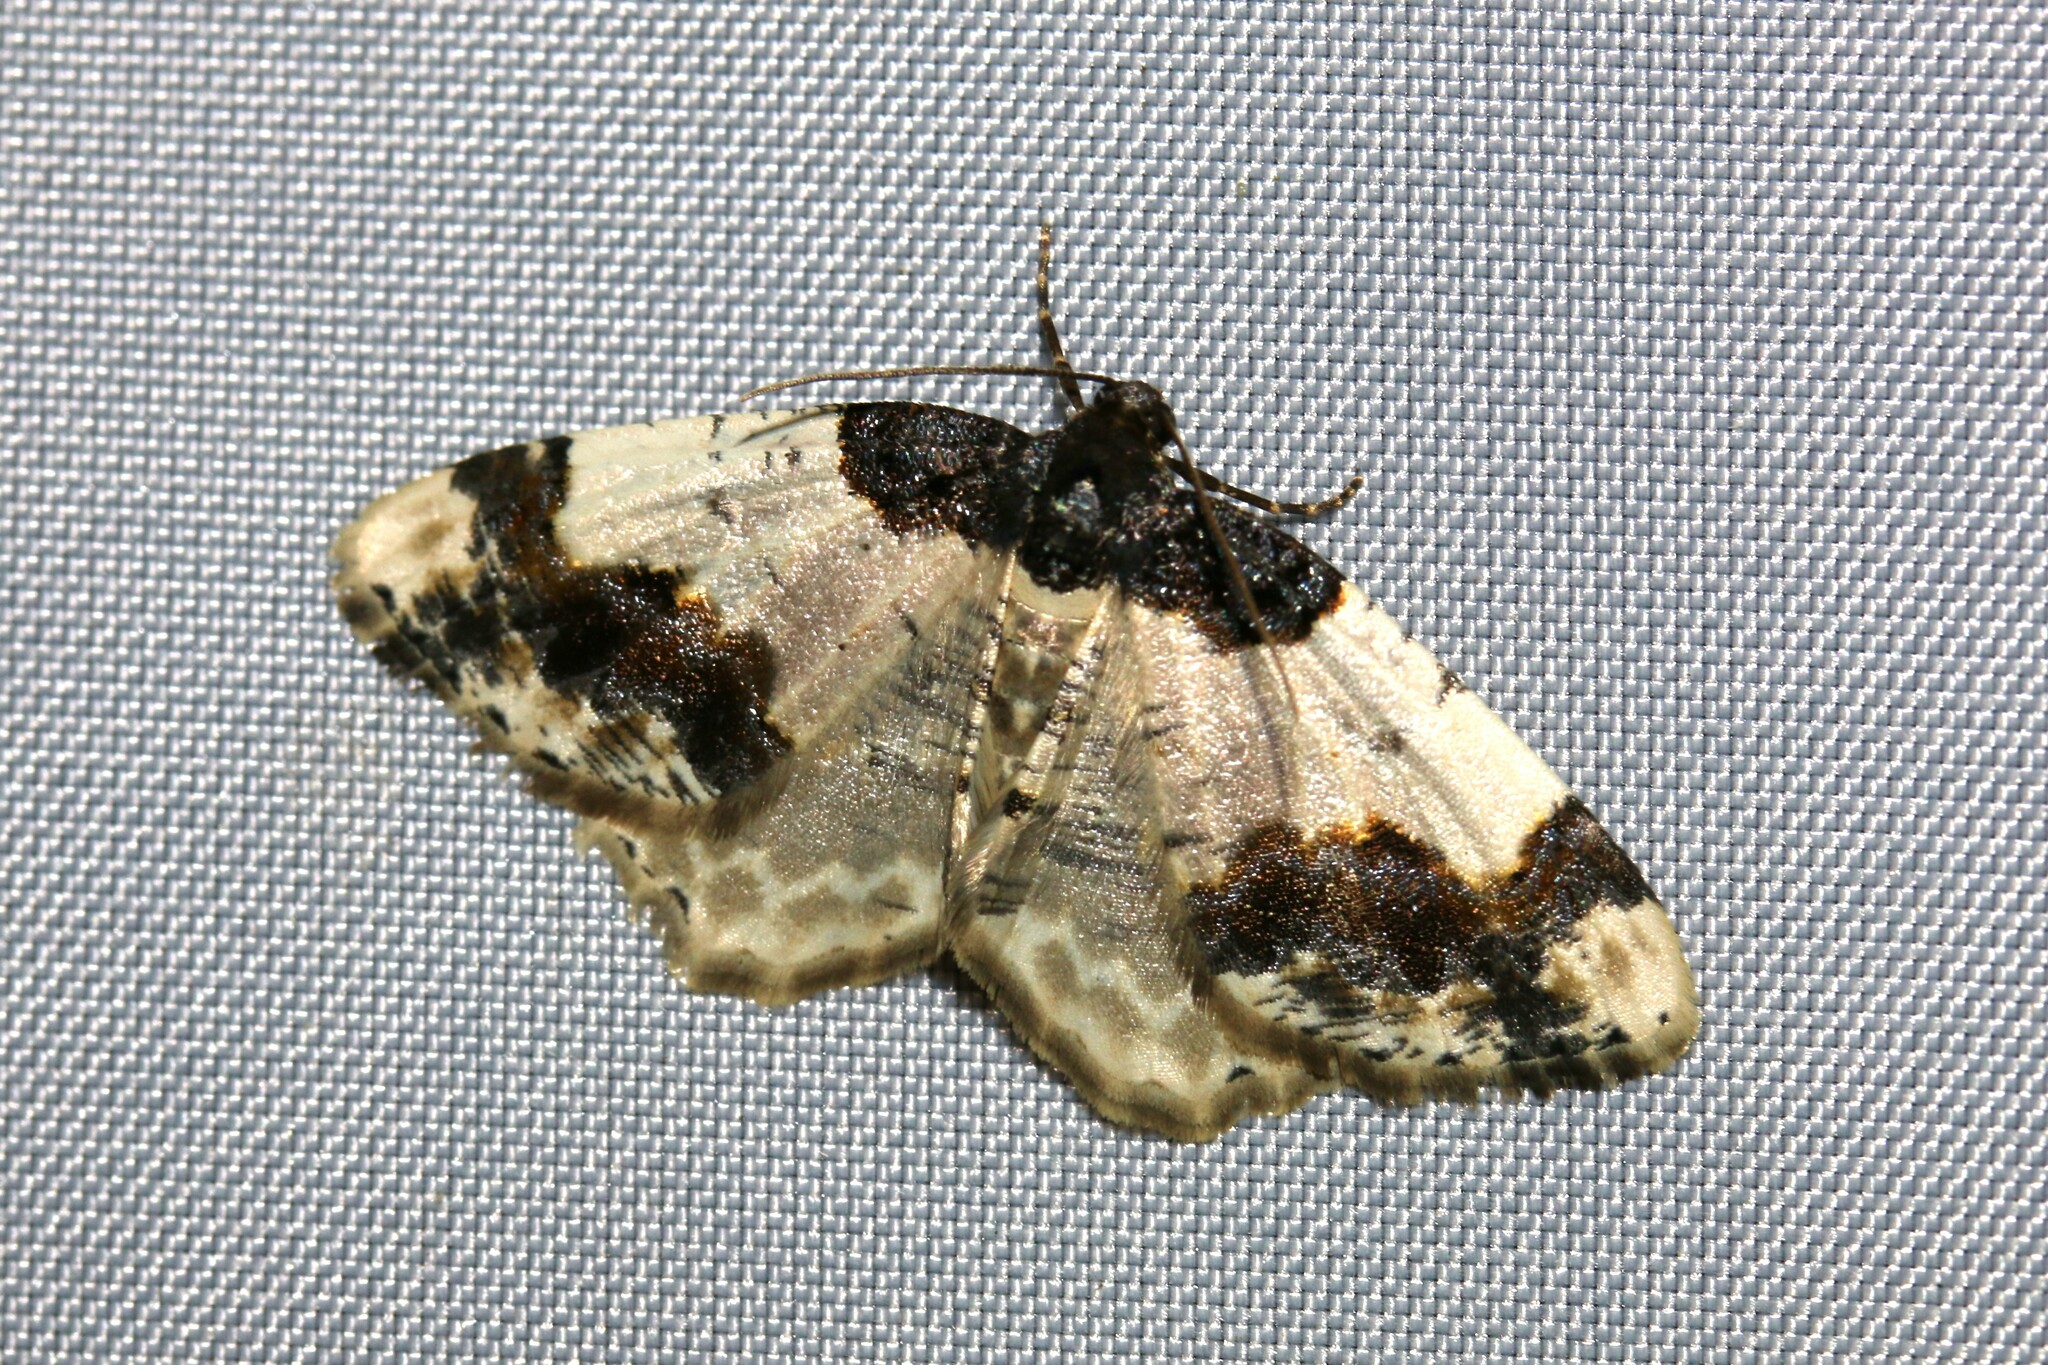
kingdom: Animalia
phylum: Arthropoda
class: Insecta
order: Lepidoptera
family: Geometridae
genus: Ligdia
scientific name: Ligdia adustata
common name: Scorched carpet
